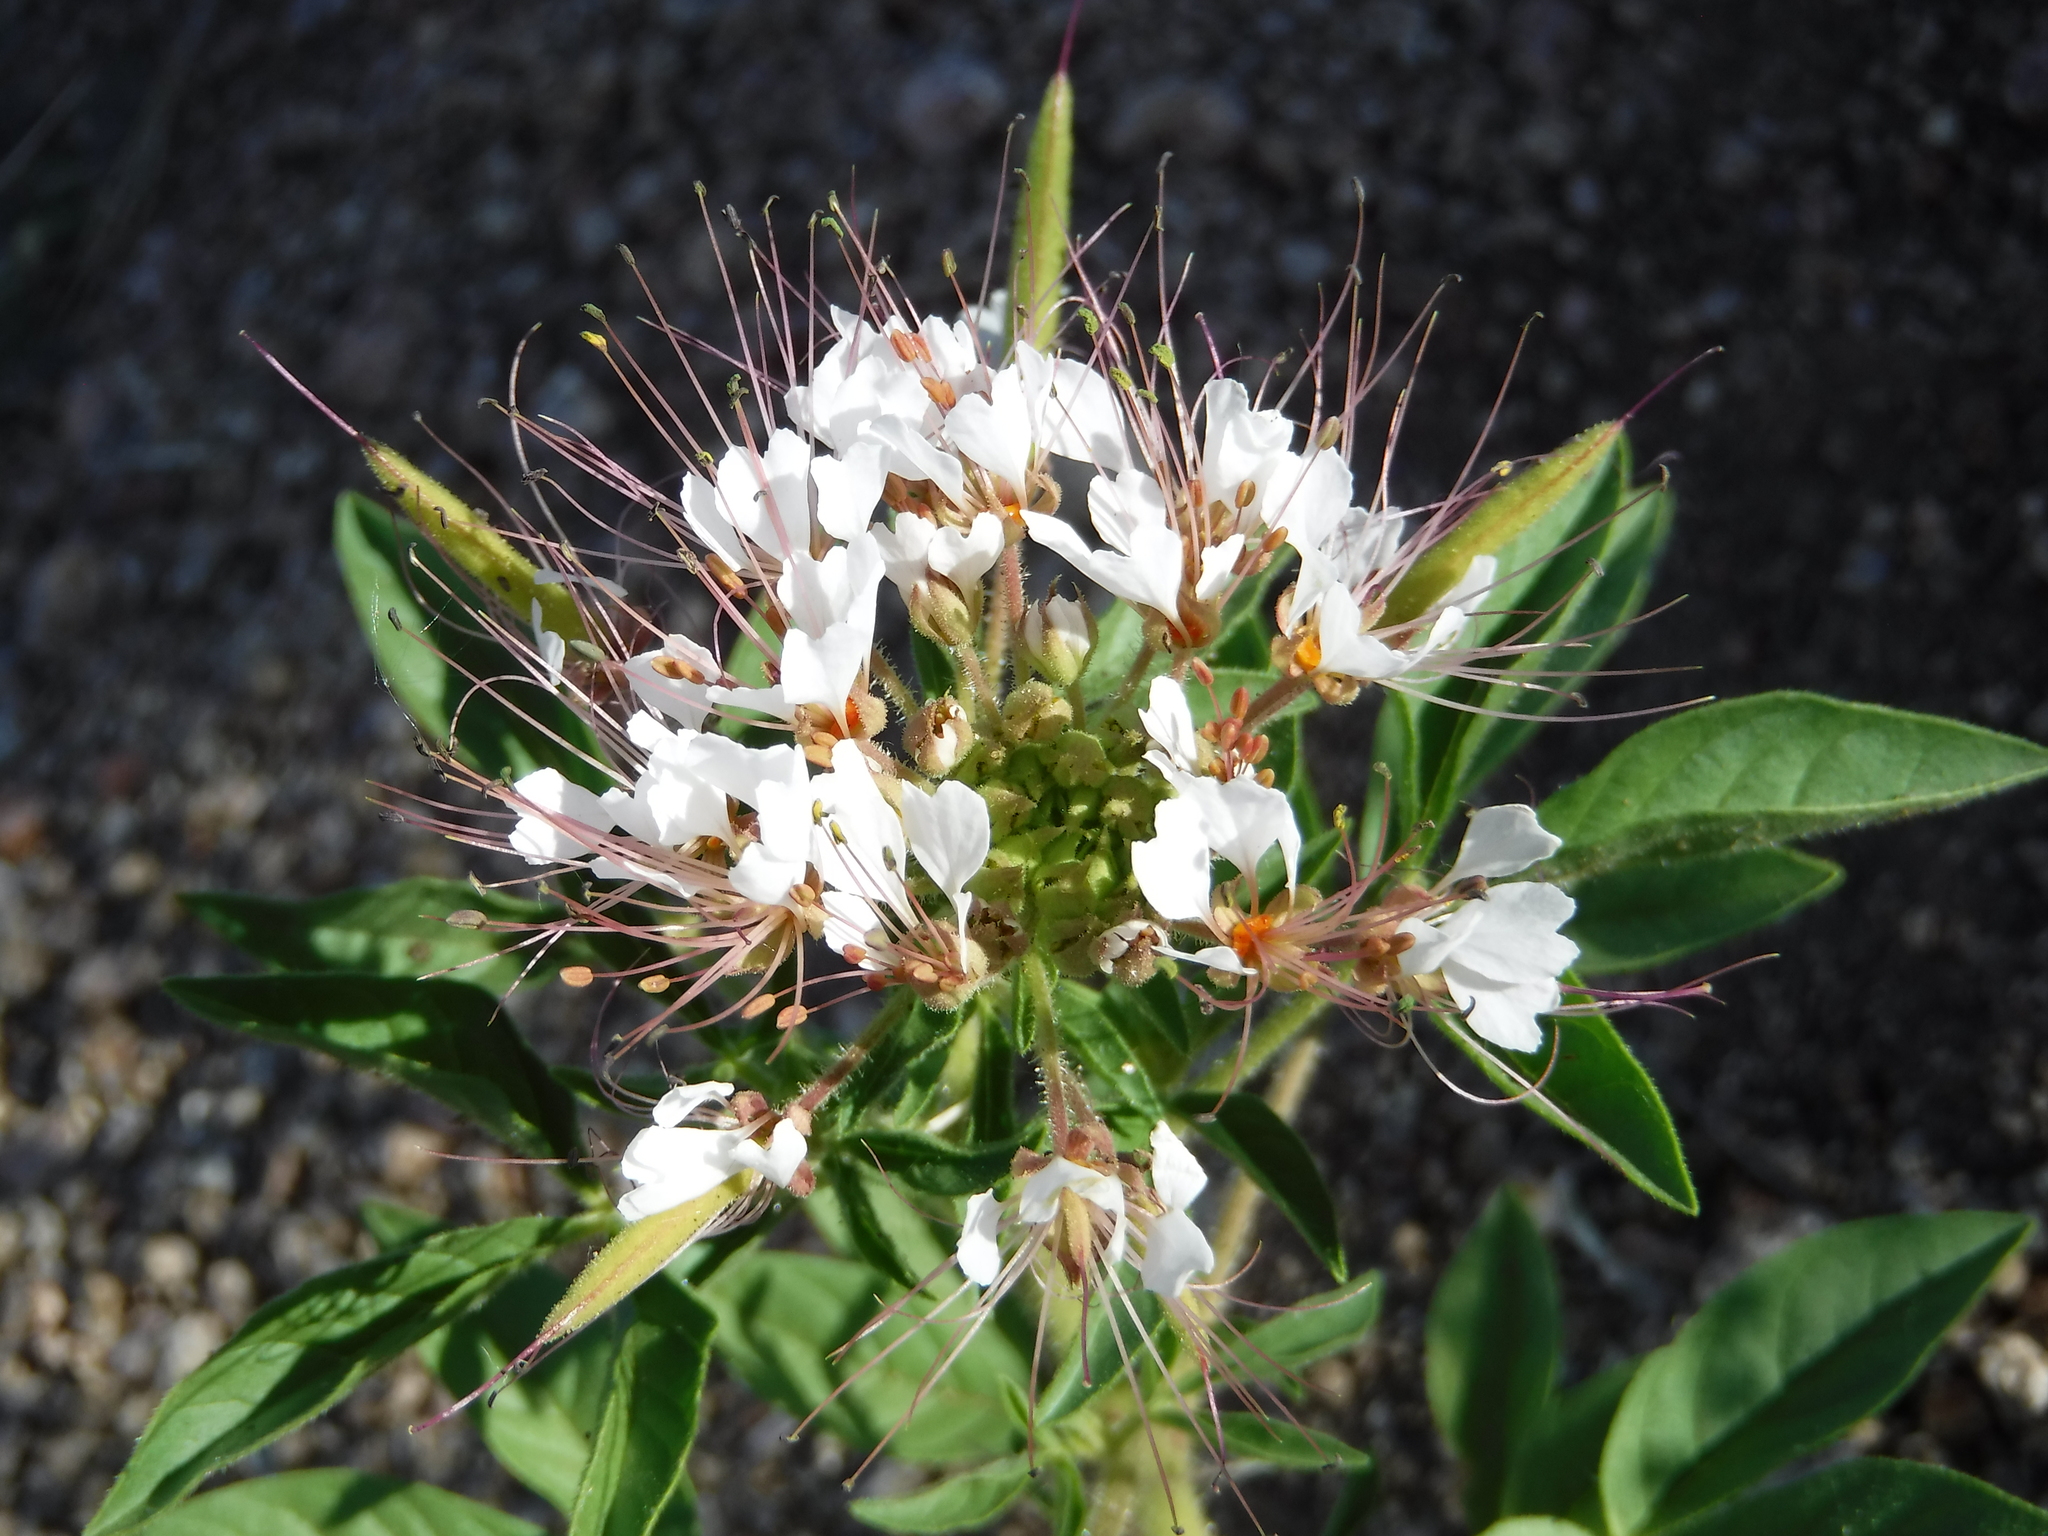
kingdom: Plantae
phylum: Tracheophyta
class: Magnoliopsida
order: Brassicales
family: Cleomaceae
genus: Polanisia
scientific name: Polanisia dodecandra
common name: Clammyweed
